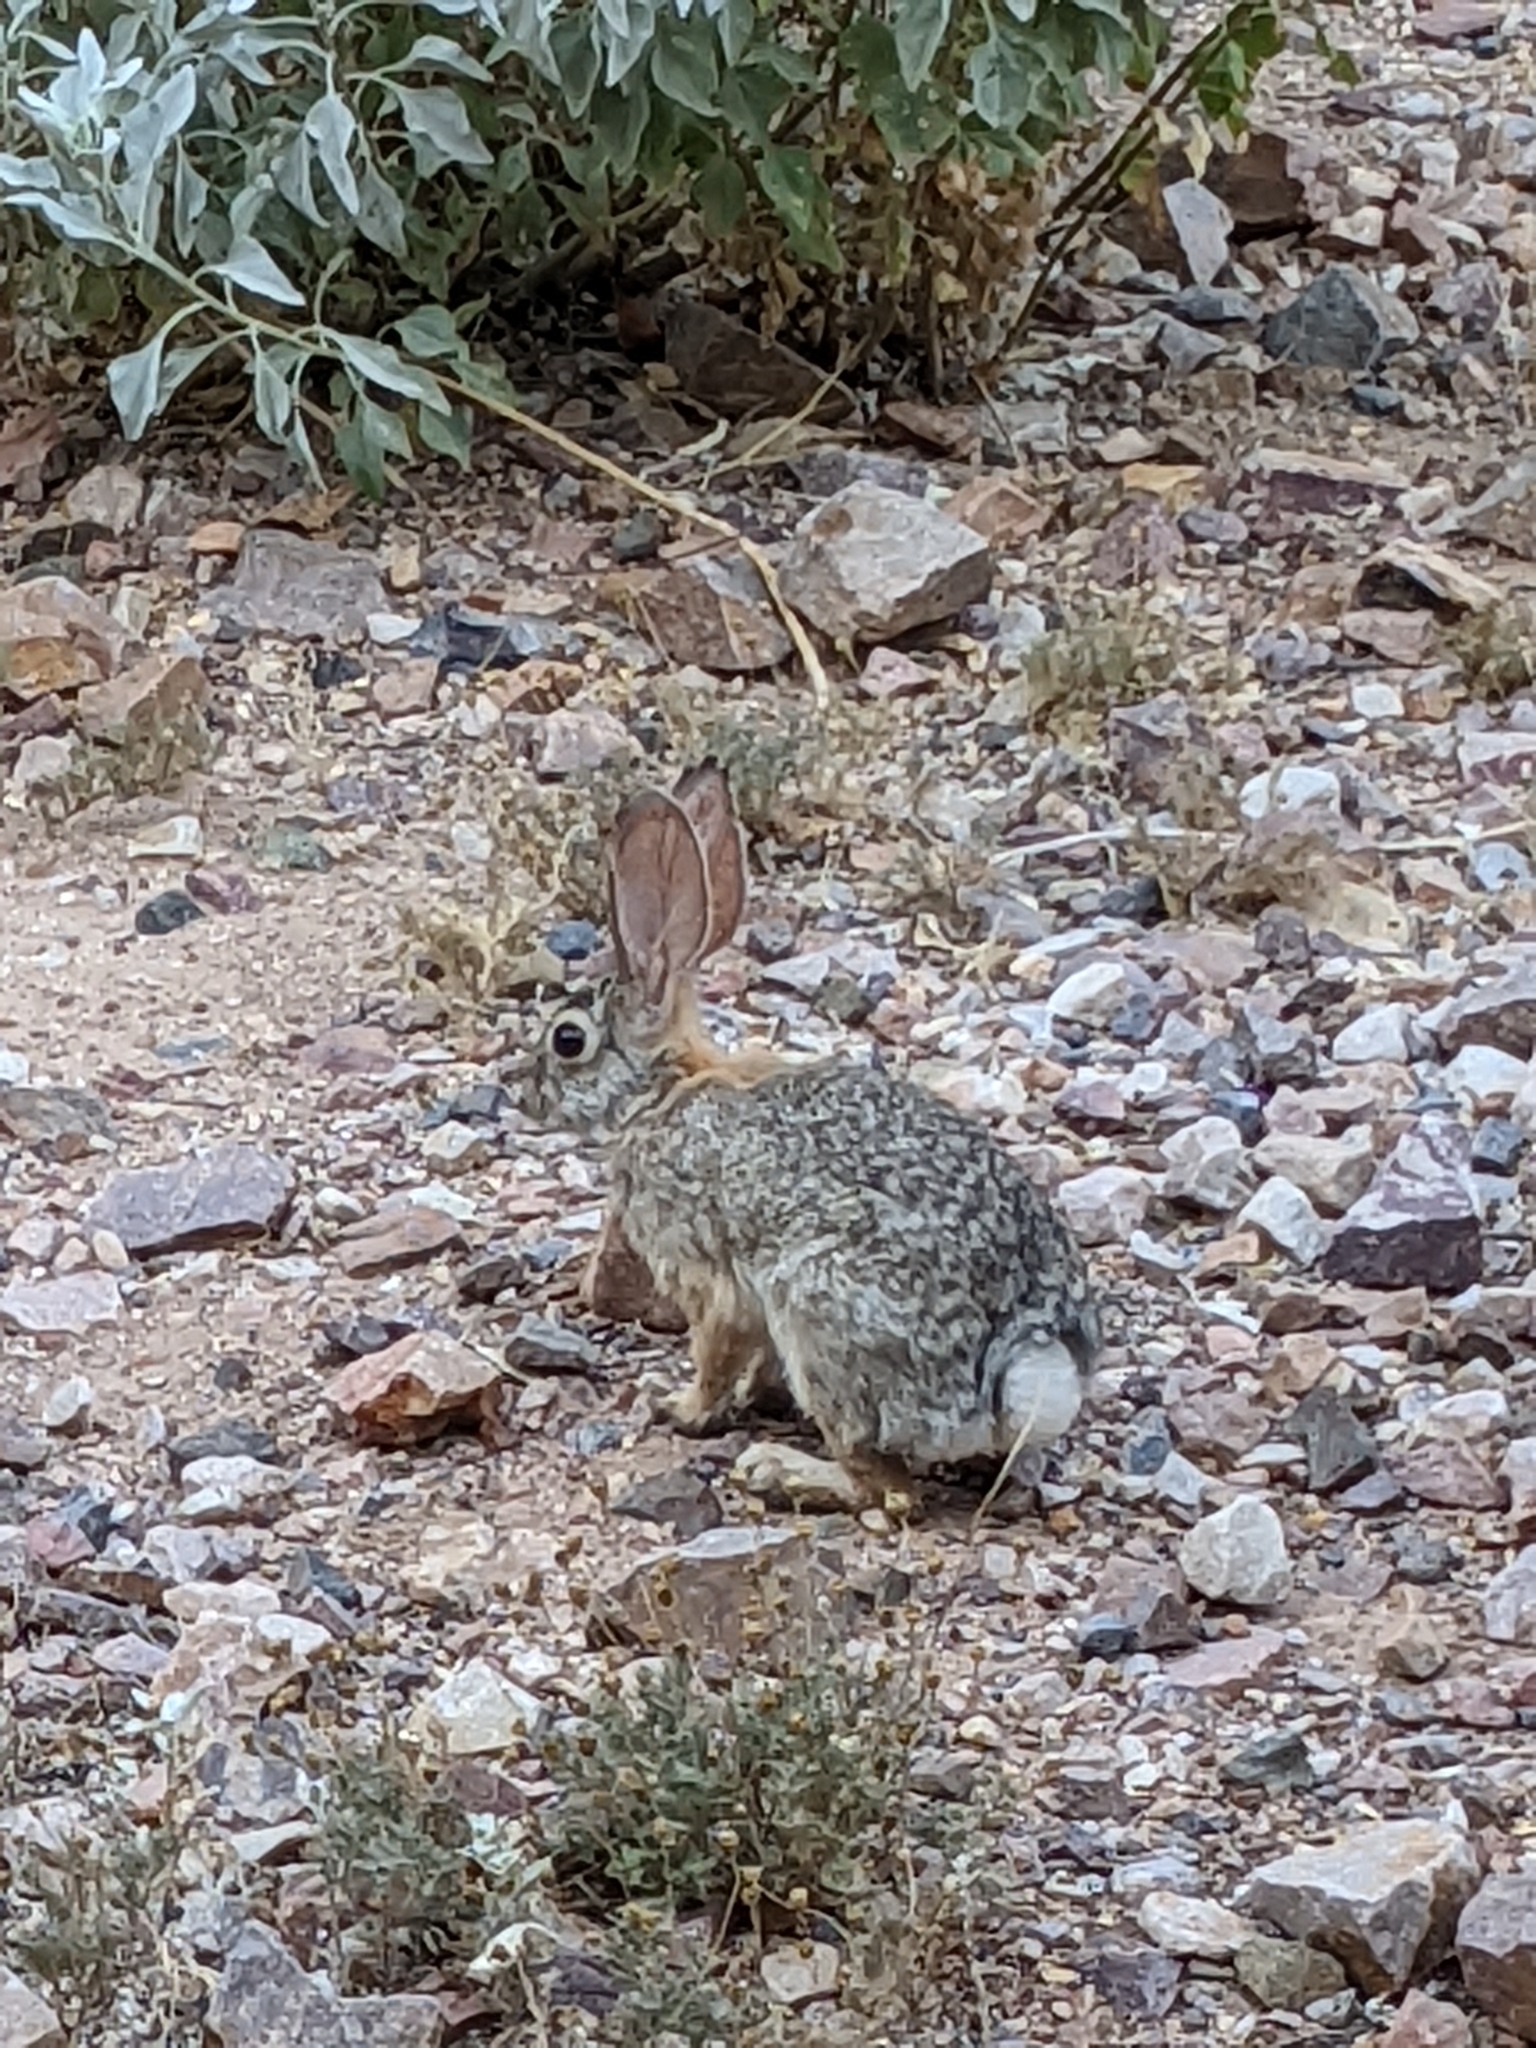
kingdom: Animalia
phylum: Chordata
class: Mammalia
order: Lagomorpha
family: Leporidae
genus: Sylvilagus
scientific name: Sylvilagus audubonii
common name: Desert cottontail
